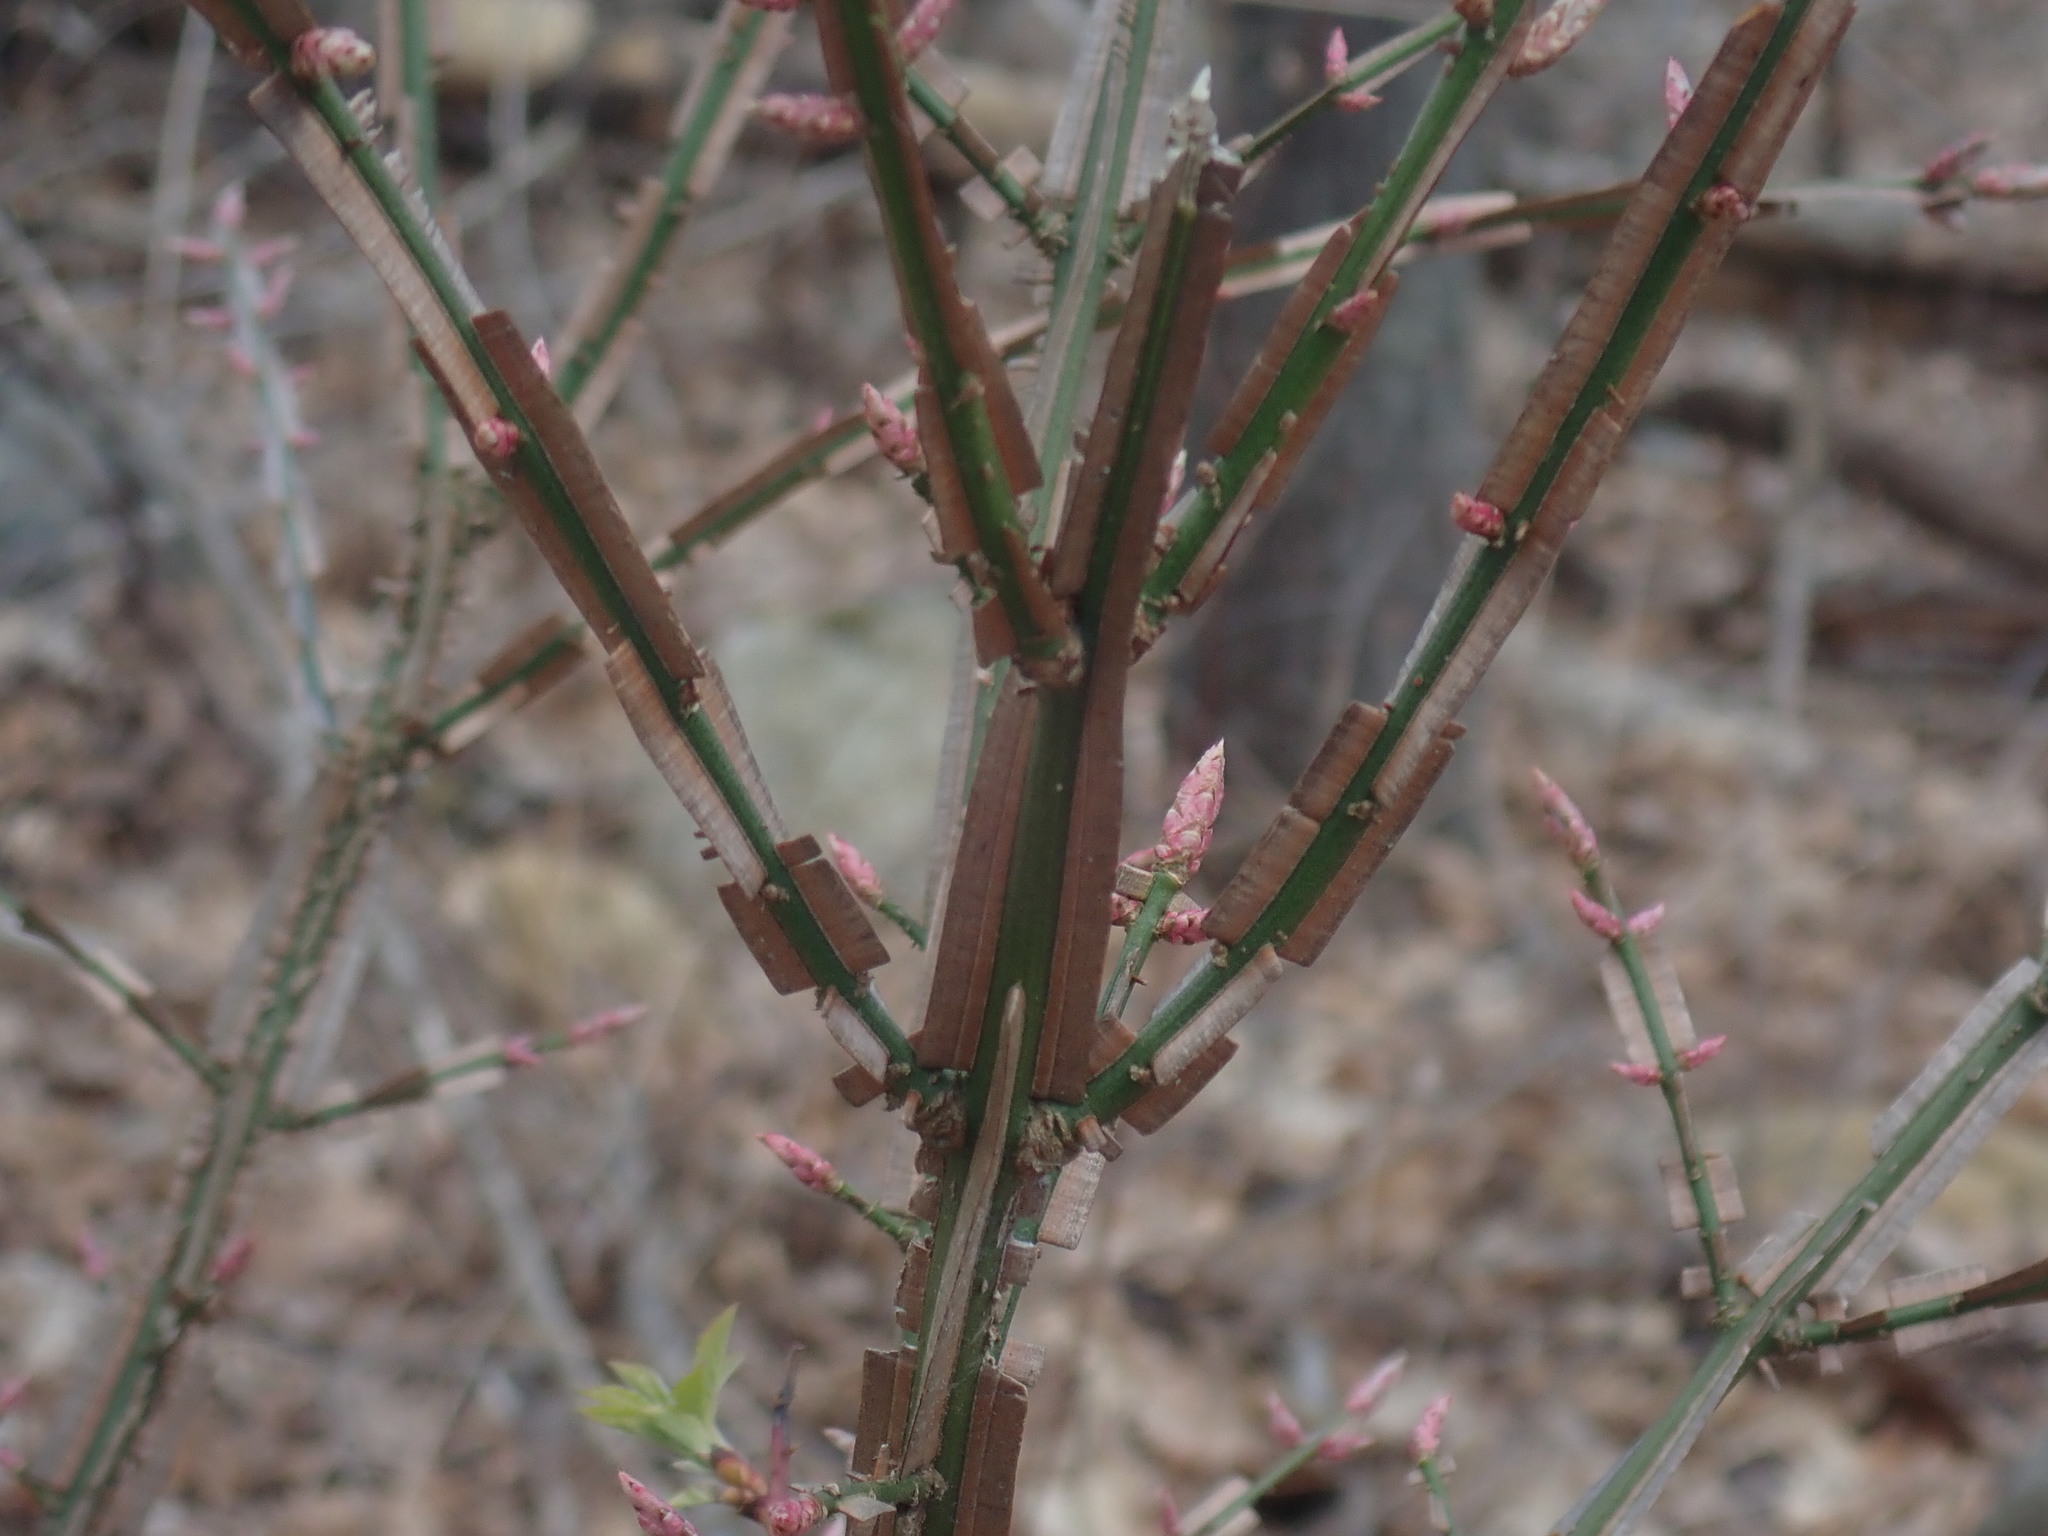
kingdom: Plantae
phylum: Tracheophyta
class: Magnoliopsida
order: Celastrales
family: Celastraceae
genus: Euonymus
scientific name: Euonymus alatus
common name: Winged euonymus
